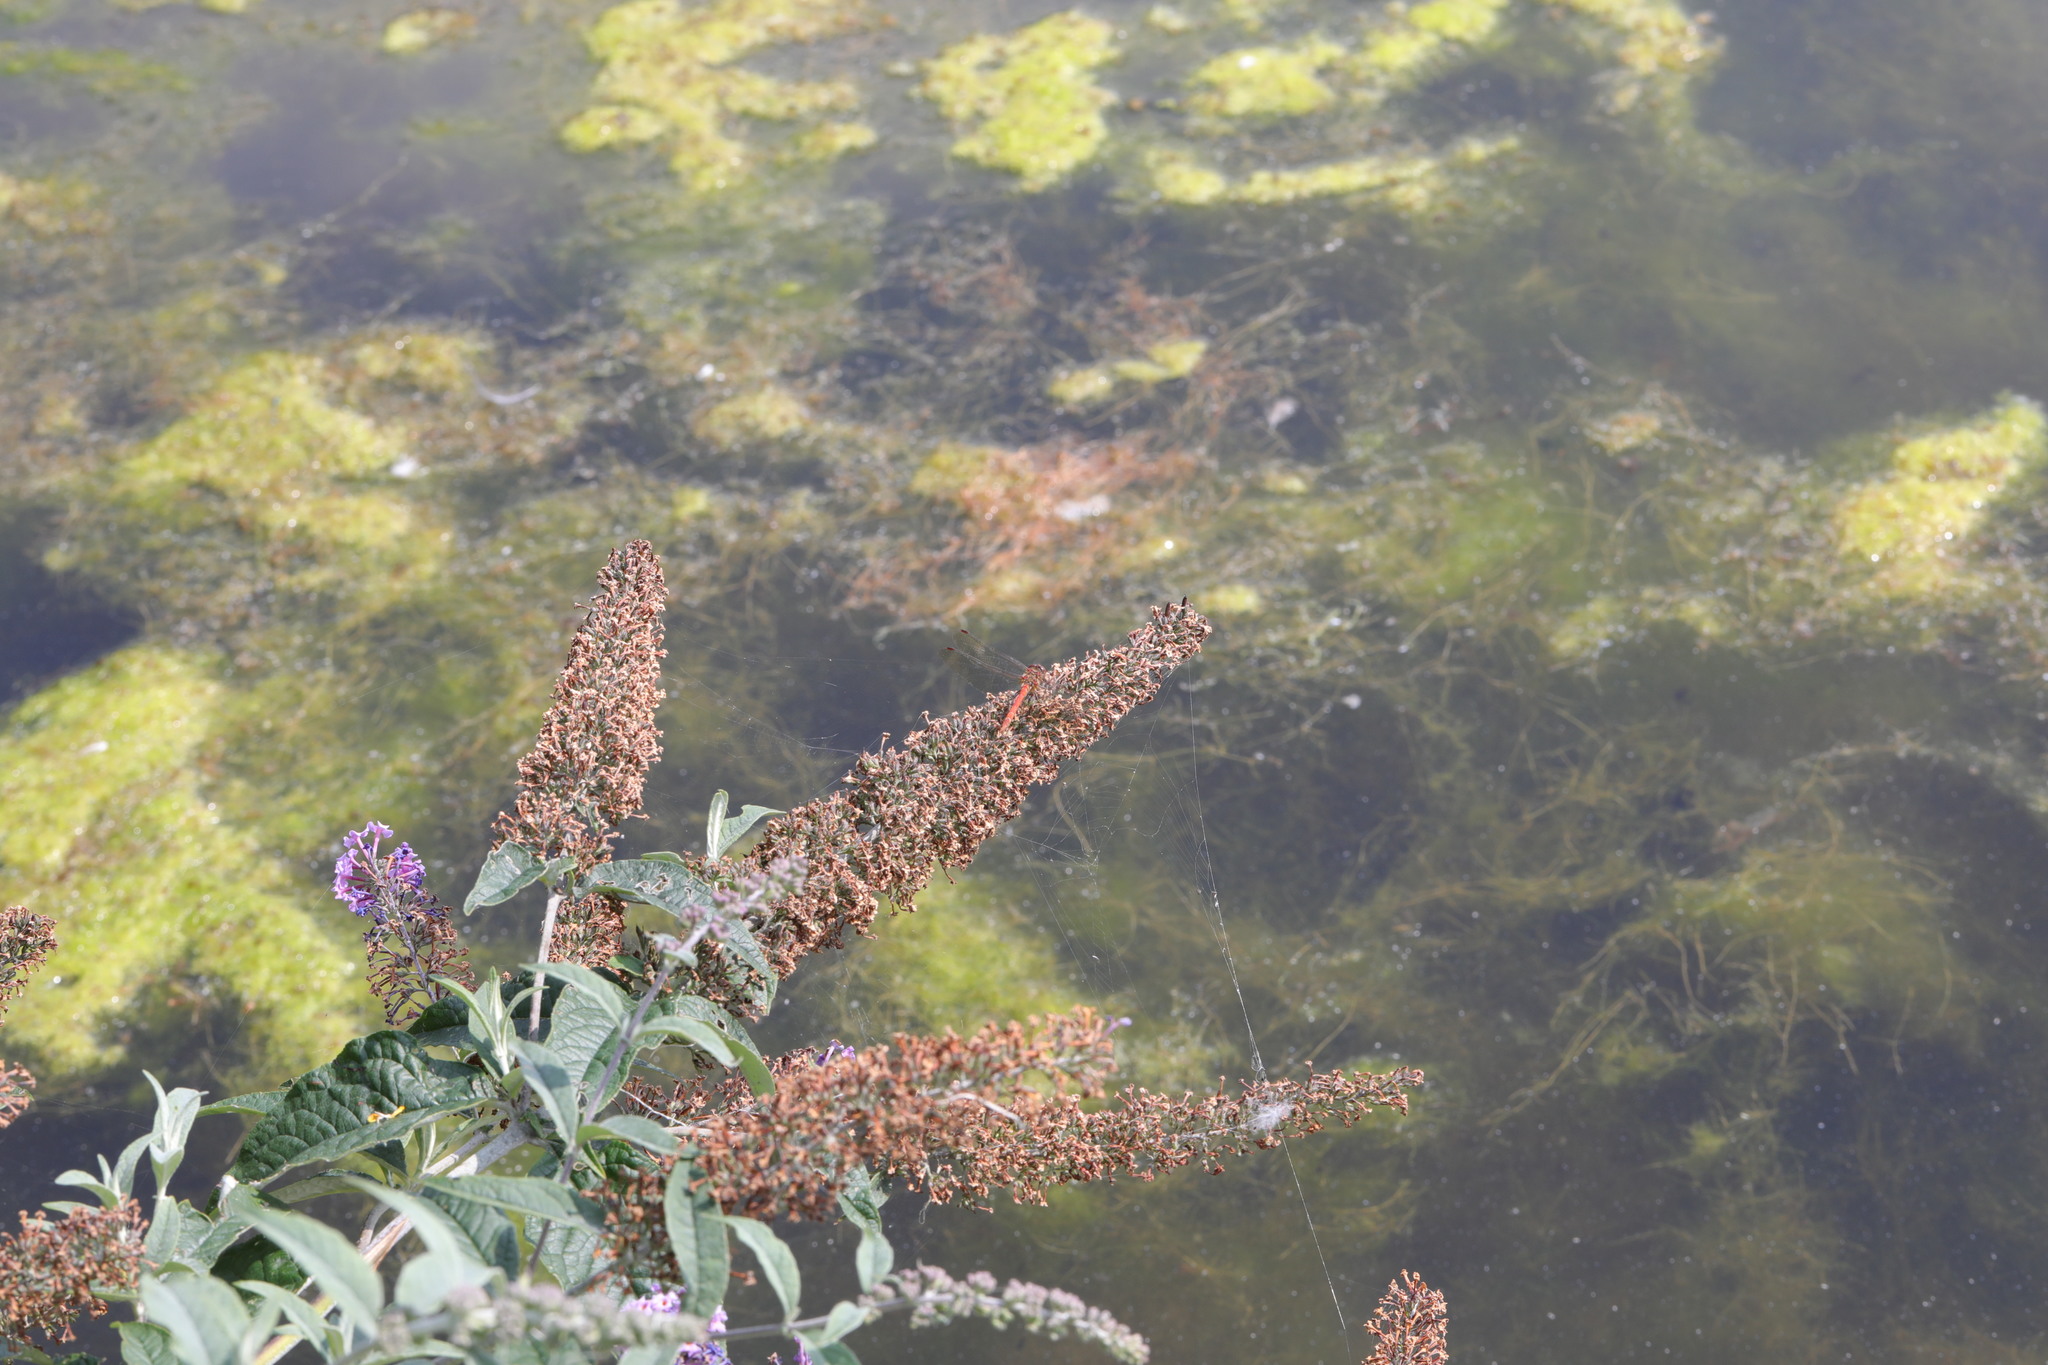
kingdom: Animalia
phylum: Arthropoda
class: Insecta
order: Odonata
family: Libellulidae
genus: Sympetrum
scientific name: Sympetrum striolatum
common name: Common darter
